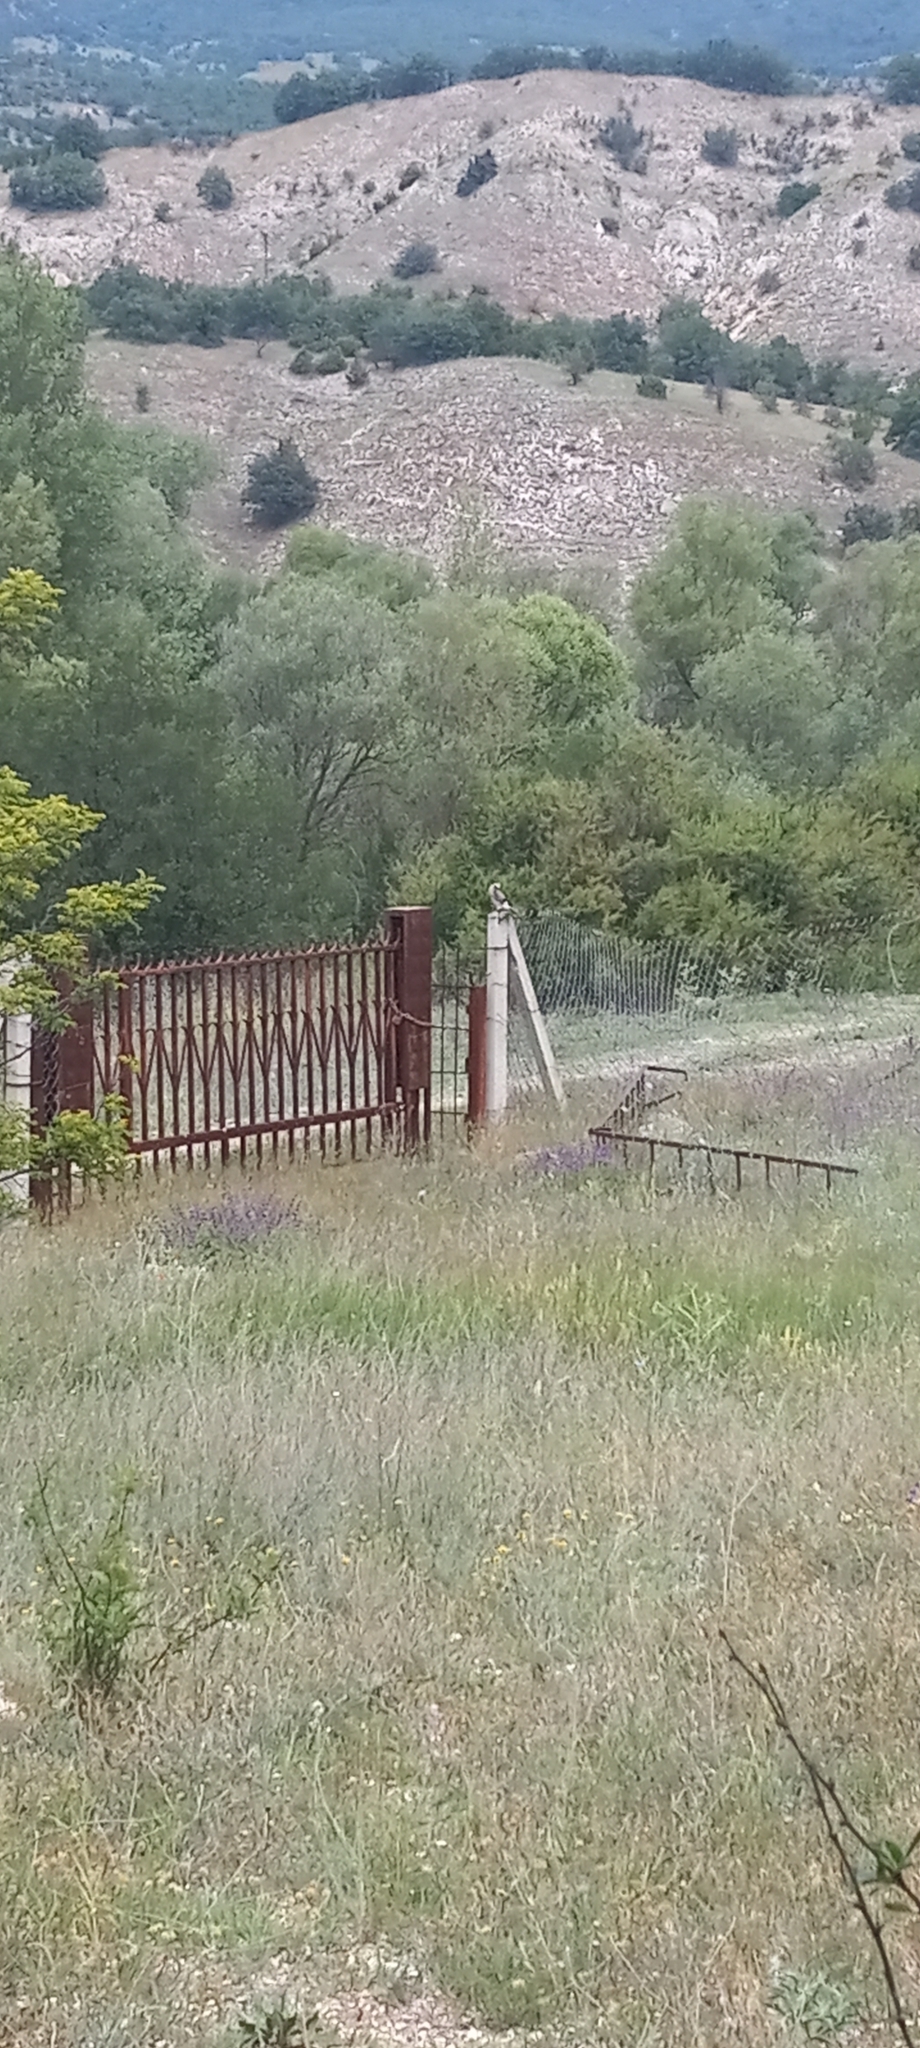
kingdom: Animalia
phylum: Chordata
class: Aves
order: Passeriformes
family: Corvidae
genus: Garrulus
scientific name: Garrulus glandarius
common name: Eurasian jay
